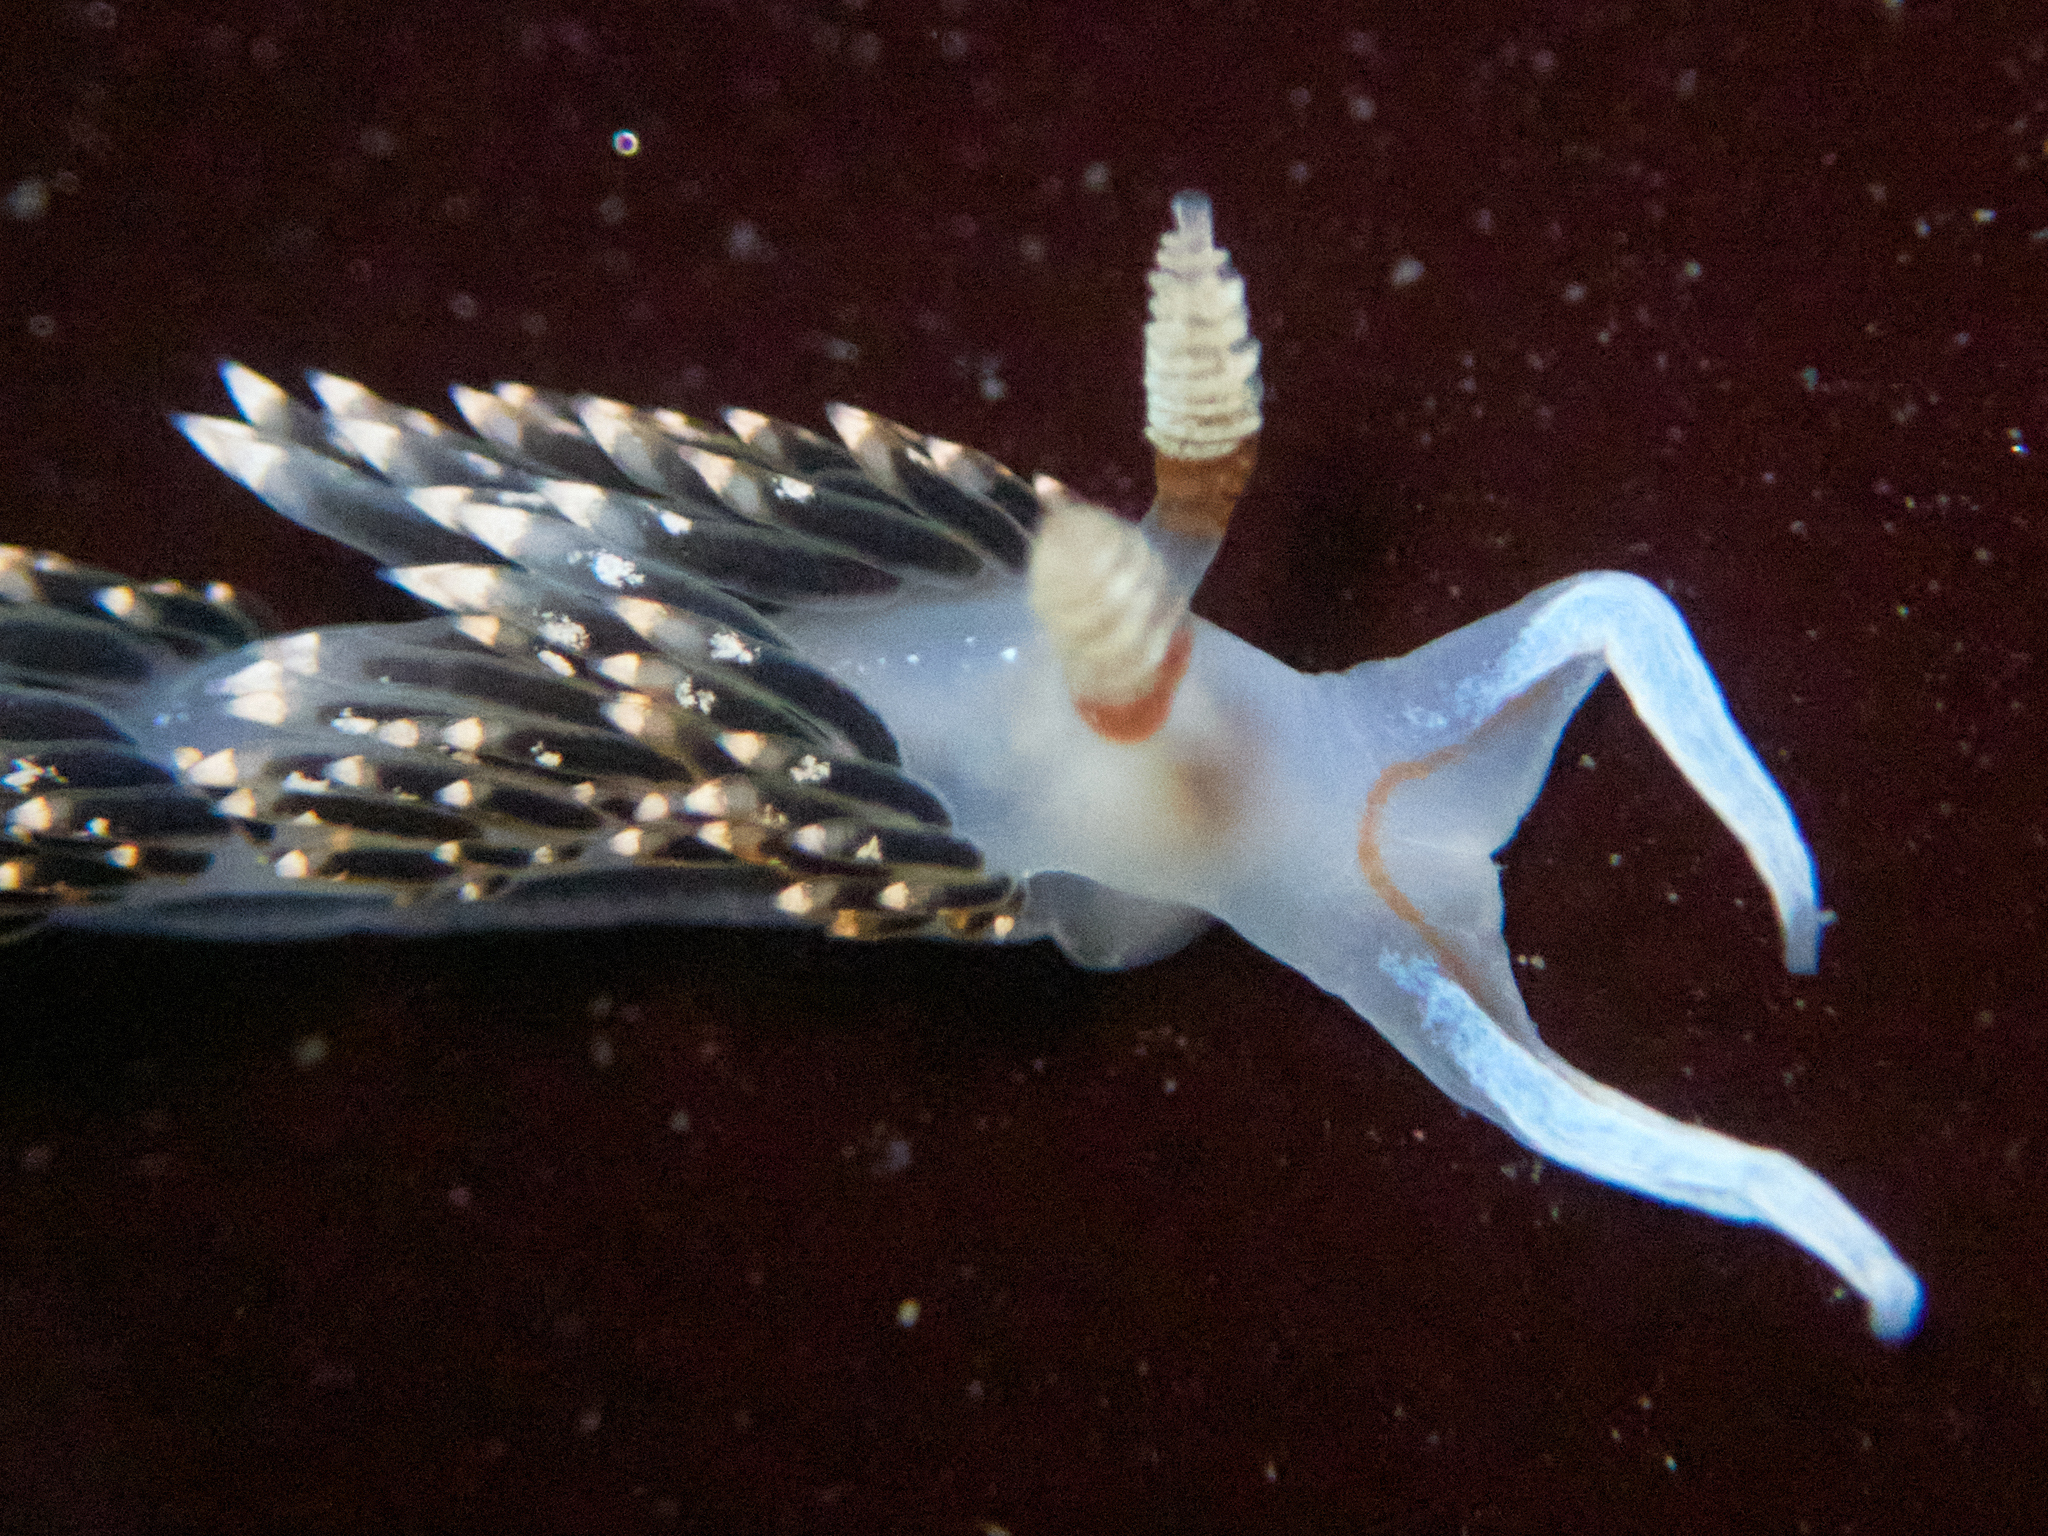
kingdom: Animalia
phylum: Mollusca
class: Gastropoda
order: Nudibranchia
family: Facelinidae
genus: Phidiana
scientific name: Phidiana hiltoni
